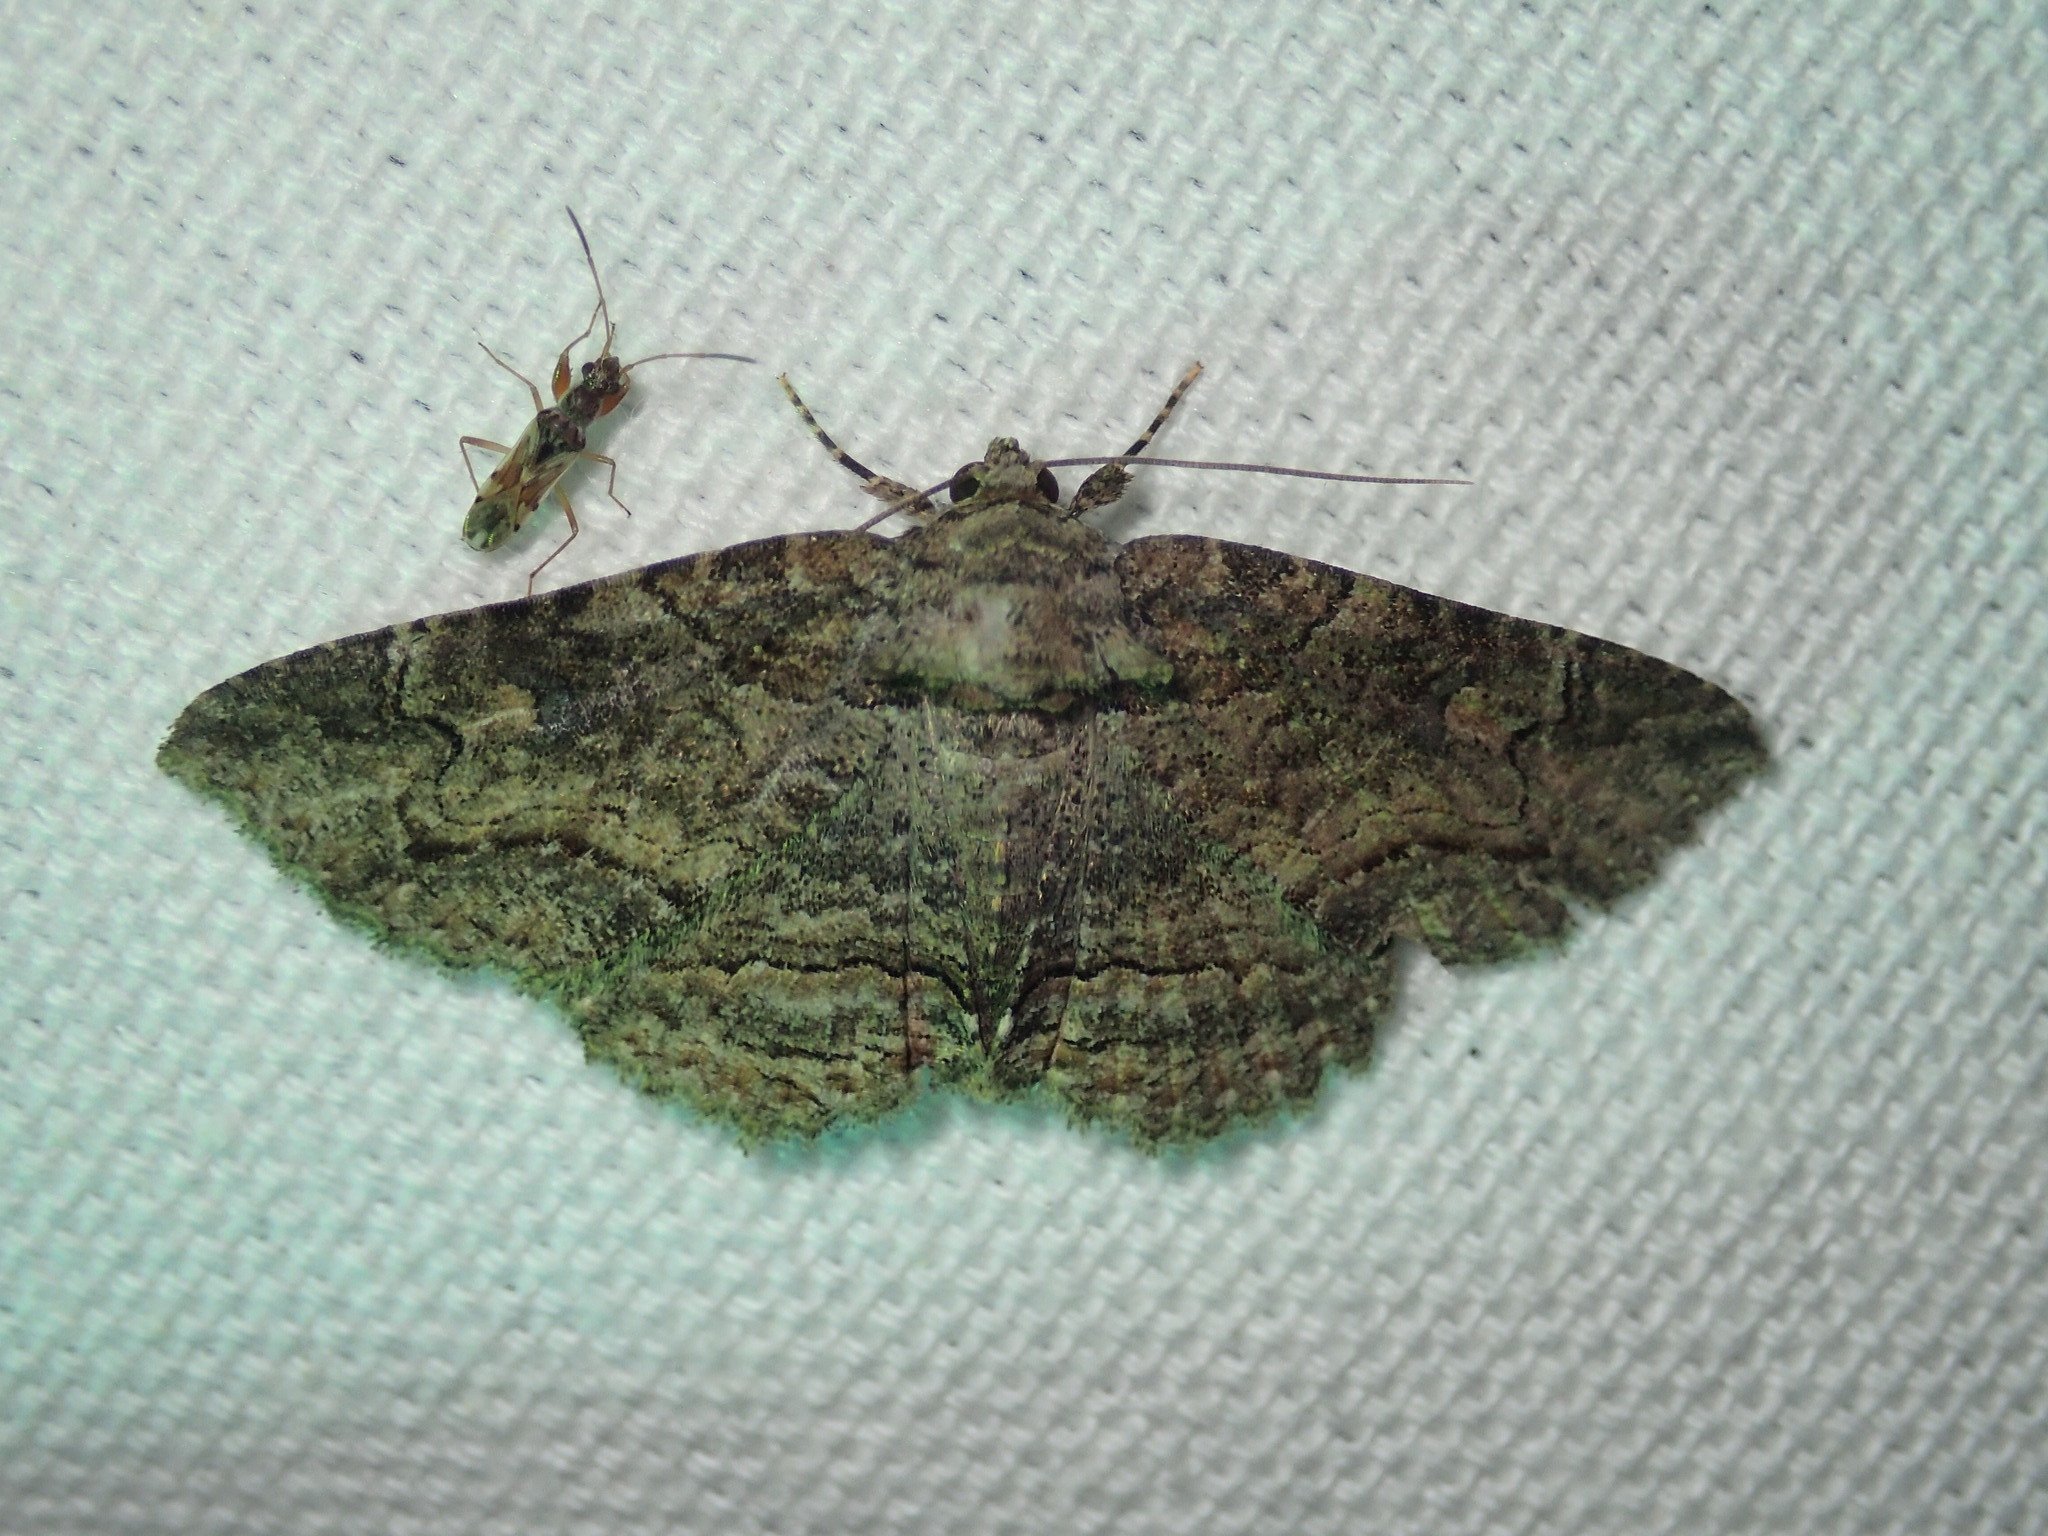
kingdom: Animalia
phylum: Arthropoda
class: Insecta
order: Lepidoptera
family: Erebidae
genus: Zale
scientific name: Zale galbanata
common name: Maple zale
